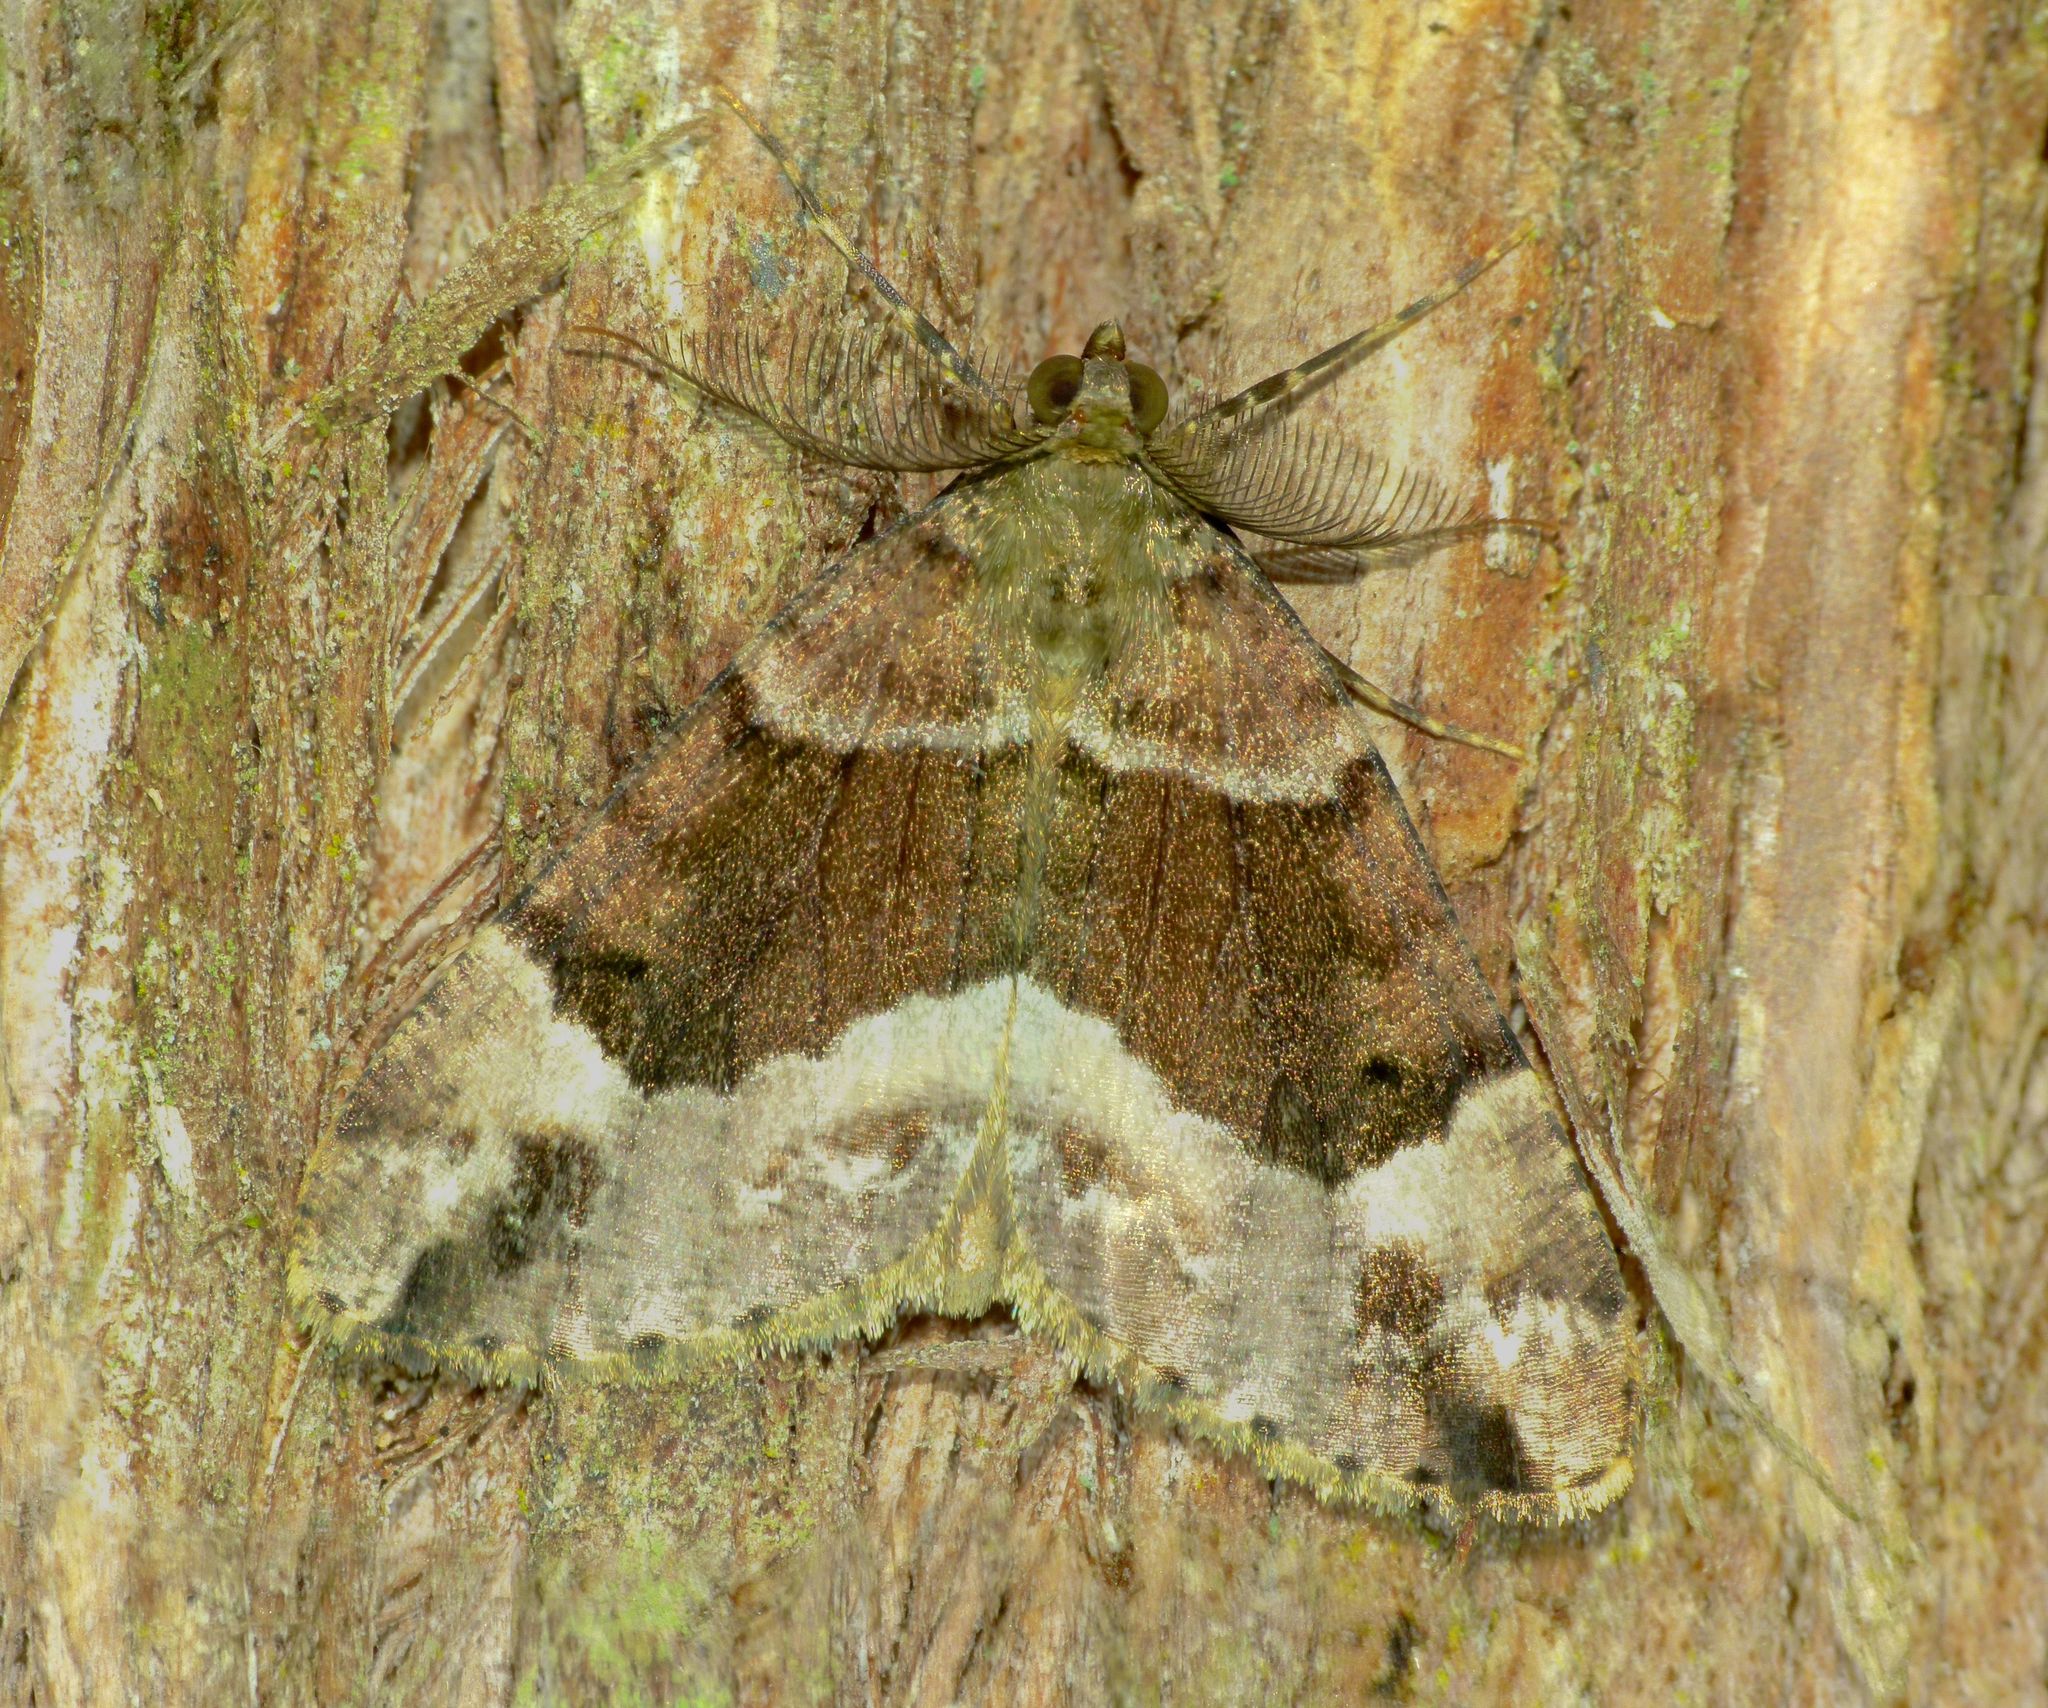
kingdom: Animalia
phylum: Arthropoda
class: Insecta
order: Lepidoptera
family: Geometridae
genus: Pseudocoremia
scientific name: Pseudocoremia productata
